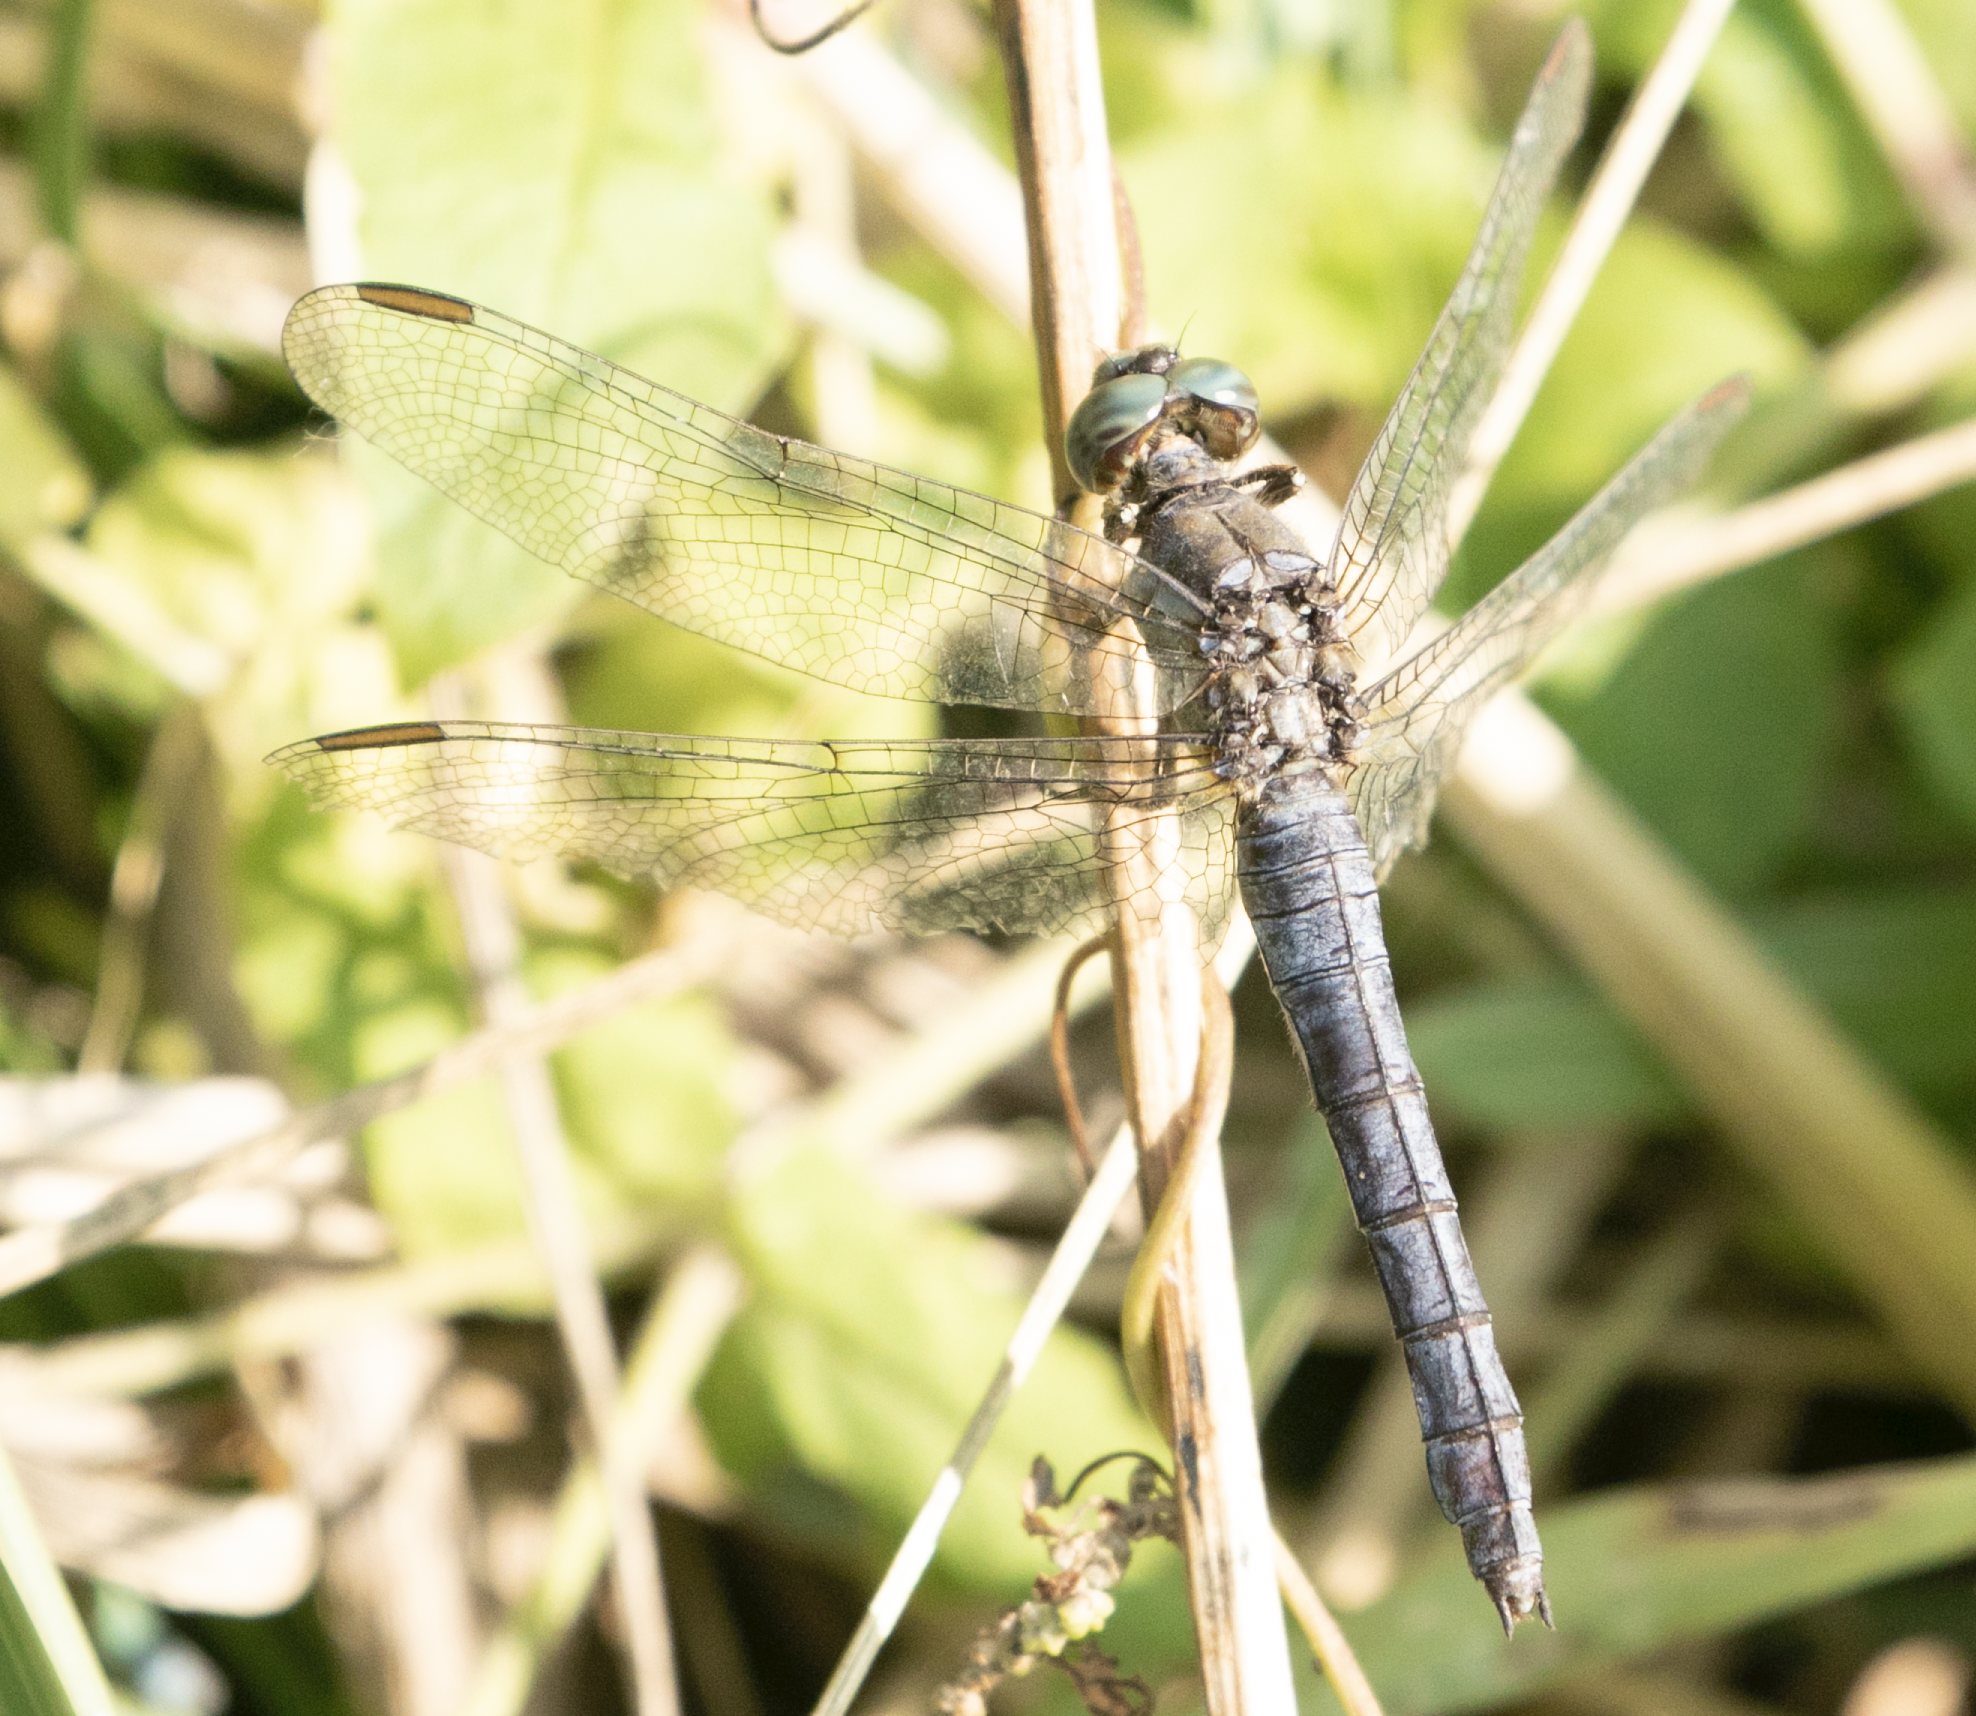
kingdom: Animalia
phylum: Arthropoda
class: Insecta
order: Odonata
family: Libellulidae
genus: Orthetrum
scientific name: Orthetrum coerulescens
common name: Keeled skimmer
